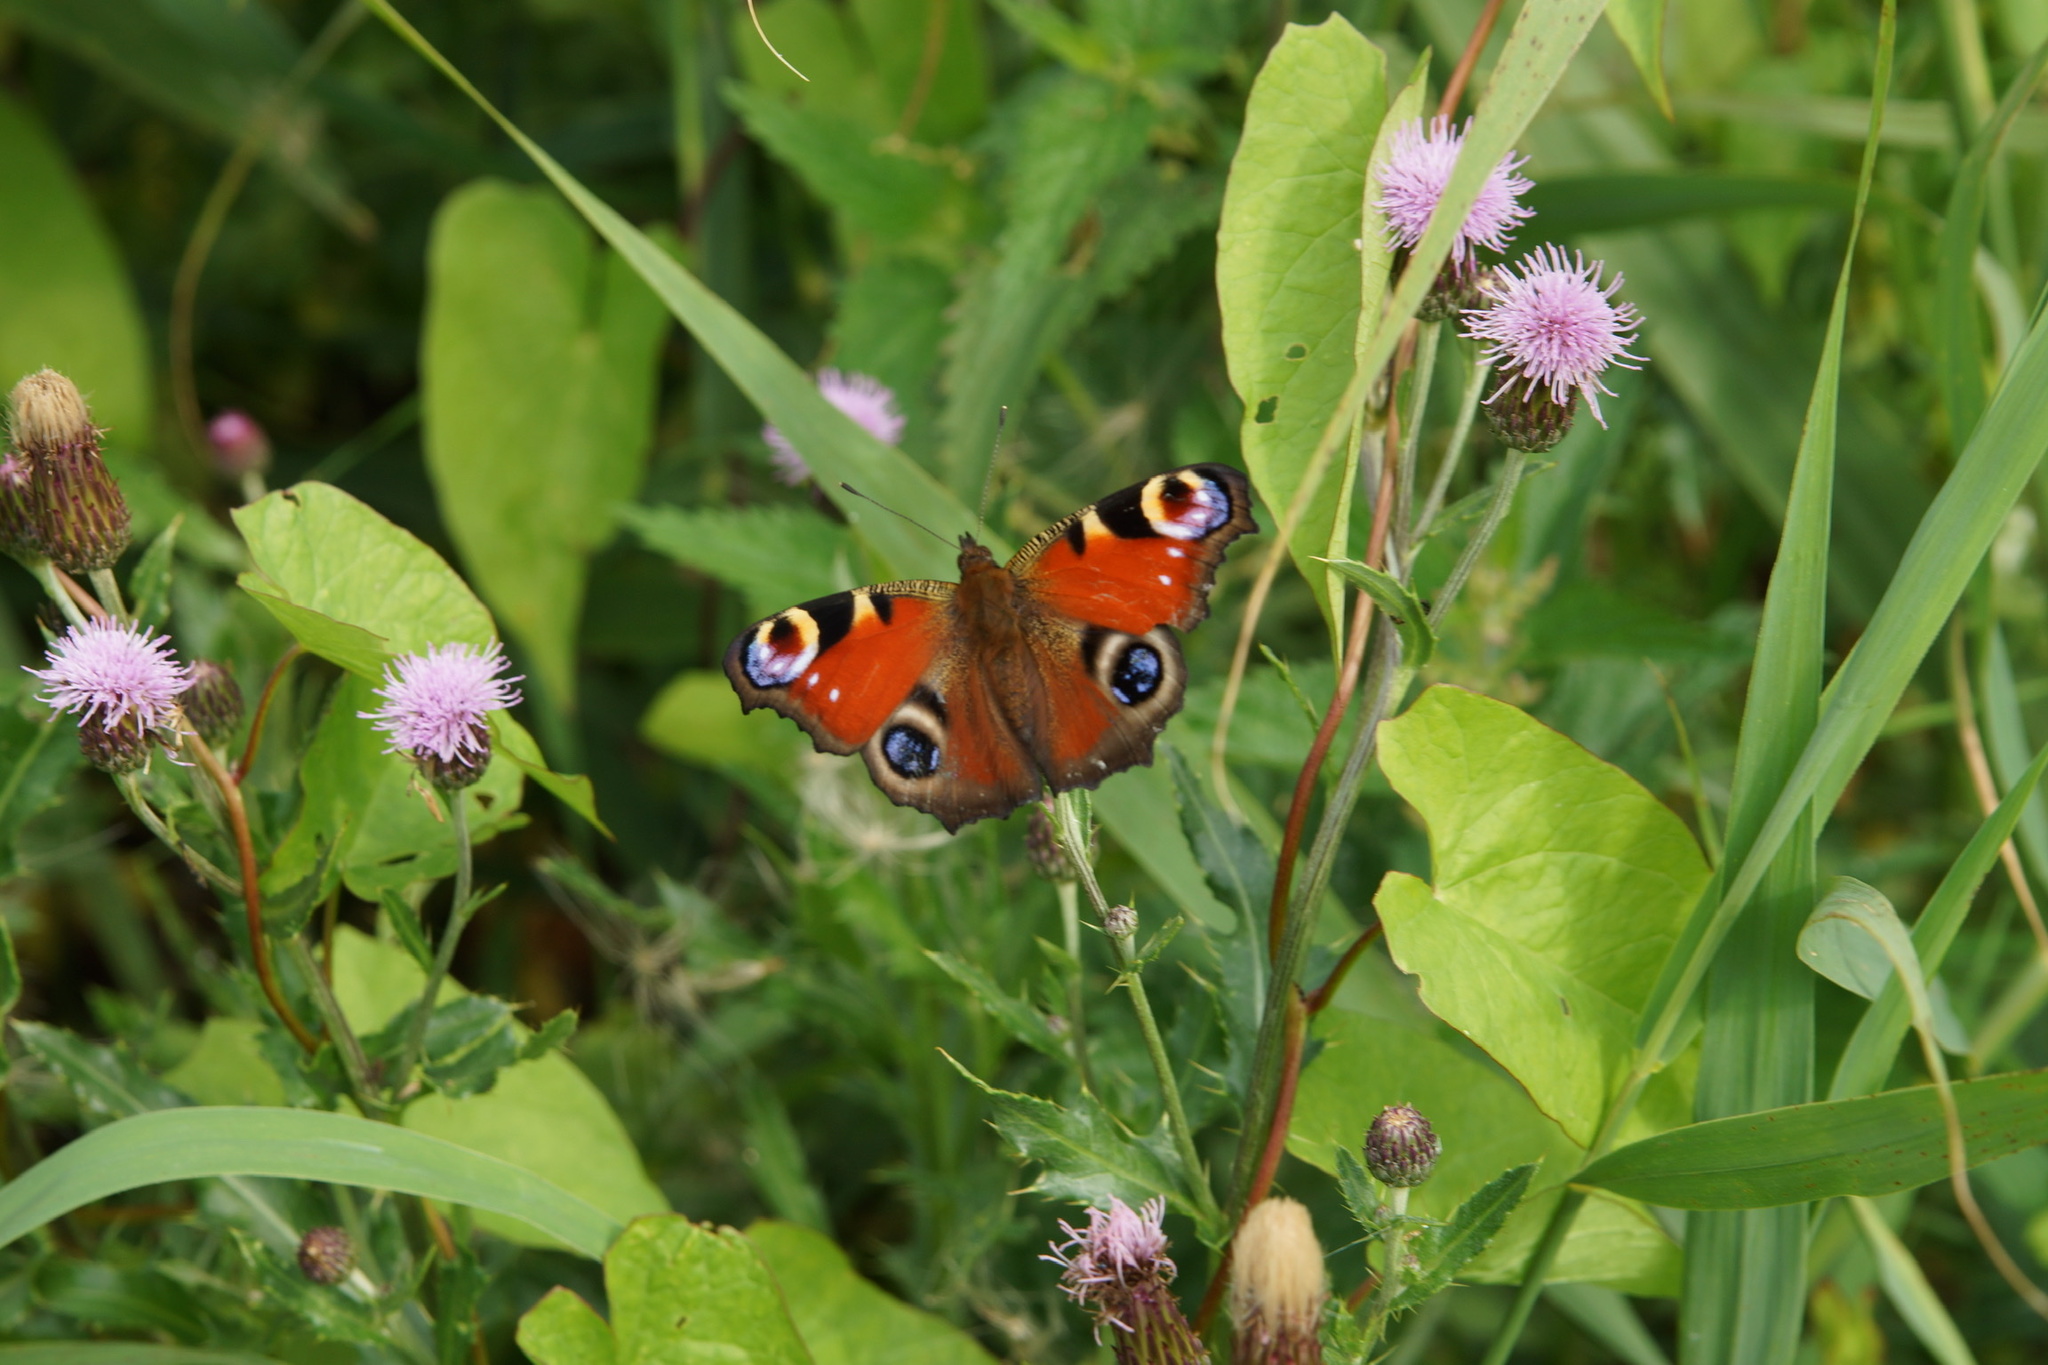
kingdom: Animalia
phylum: Arthropoda
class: Insecta
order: Lepidoptera
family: Nymphalidae
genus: Aglais
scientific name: Aglais io
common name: Peacock
